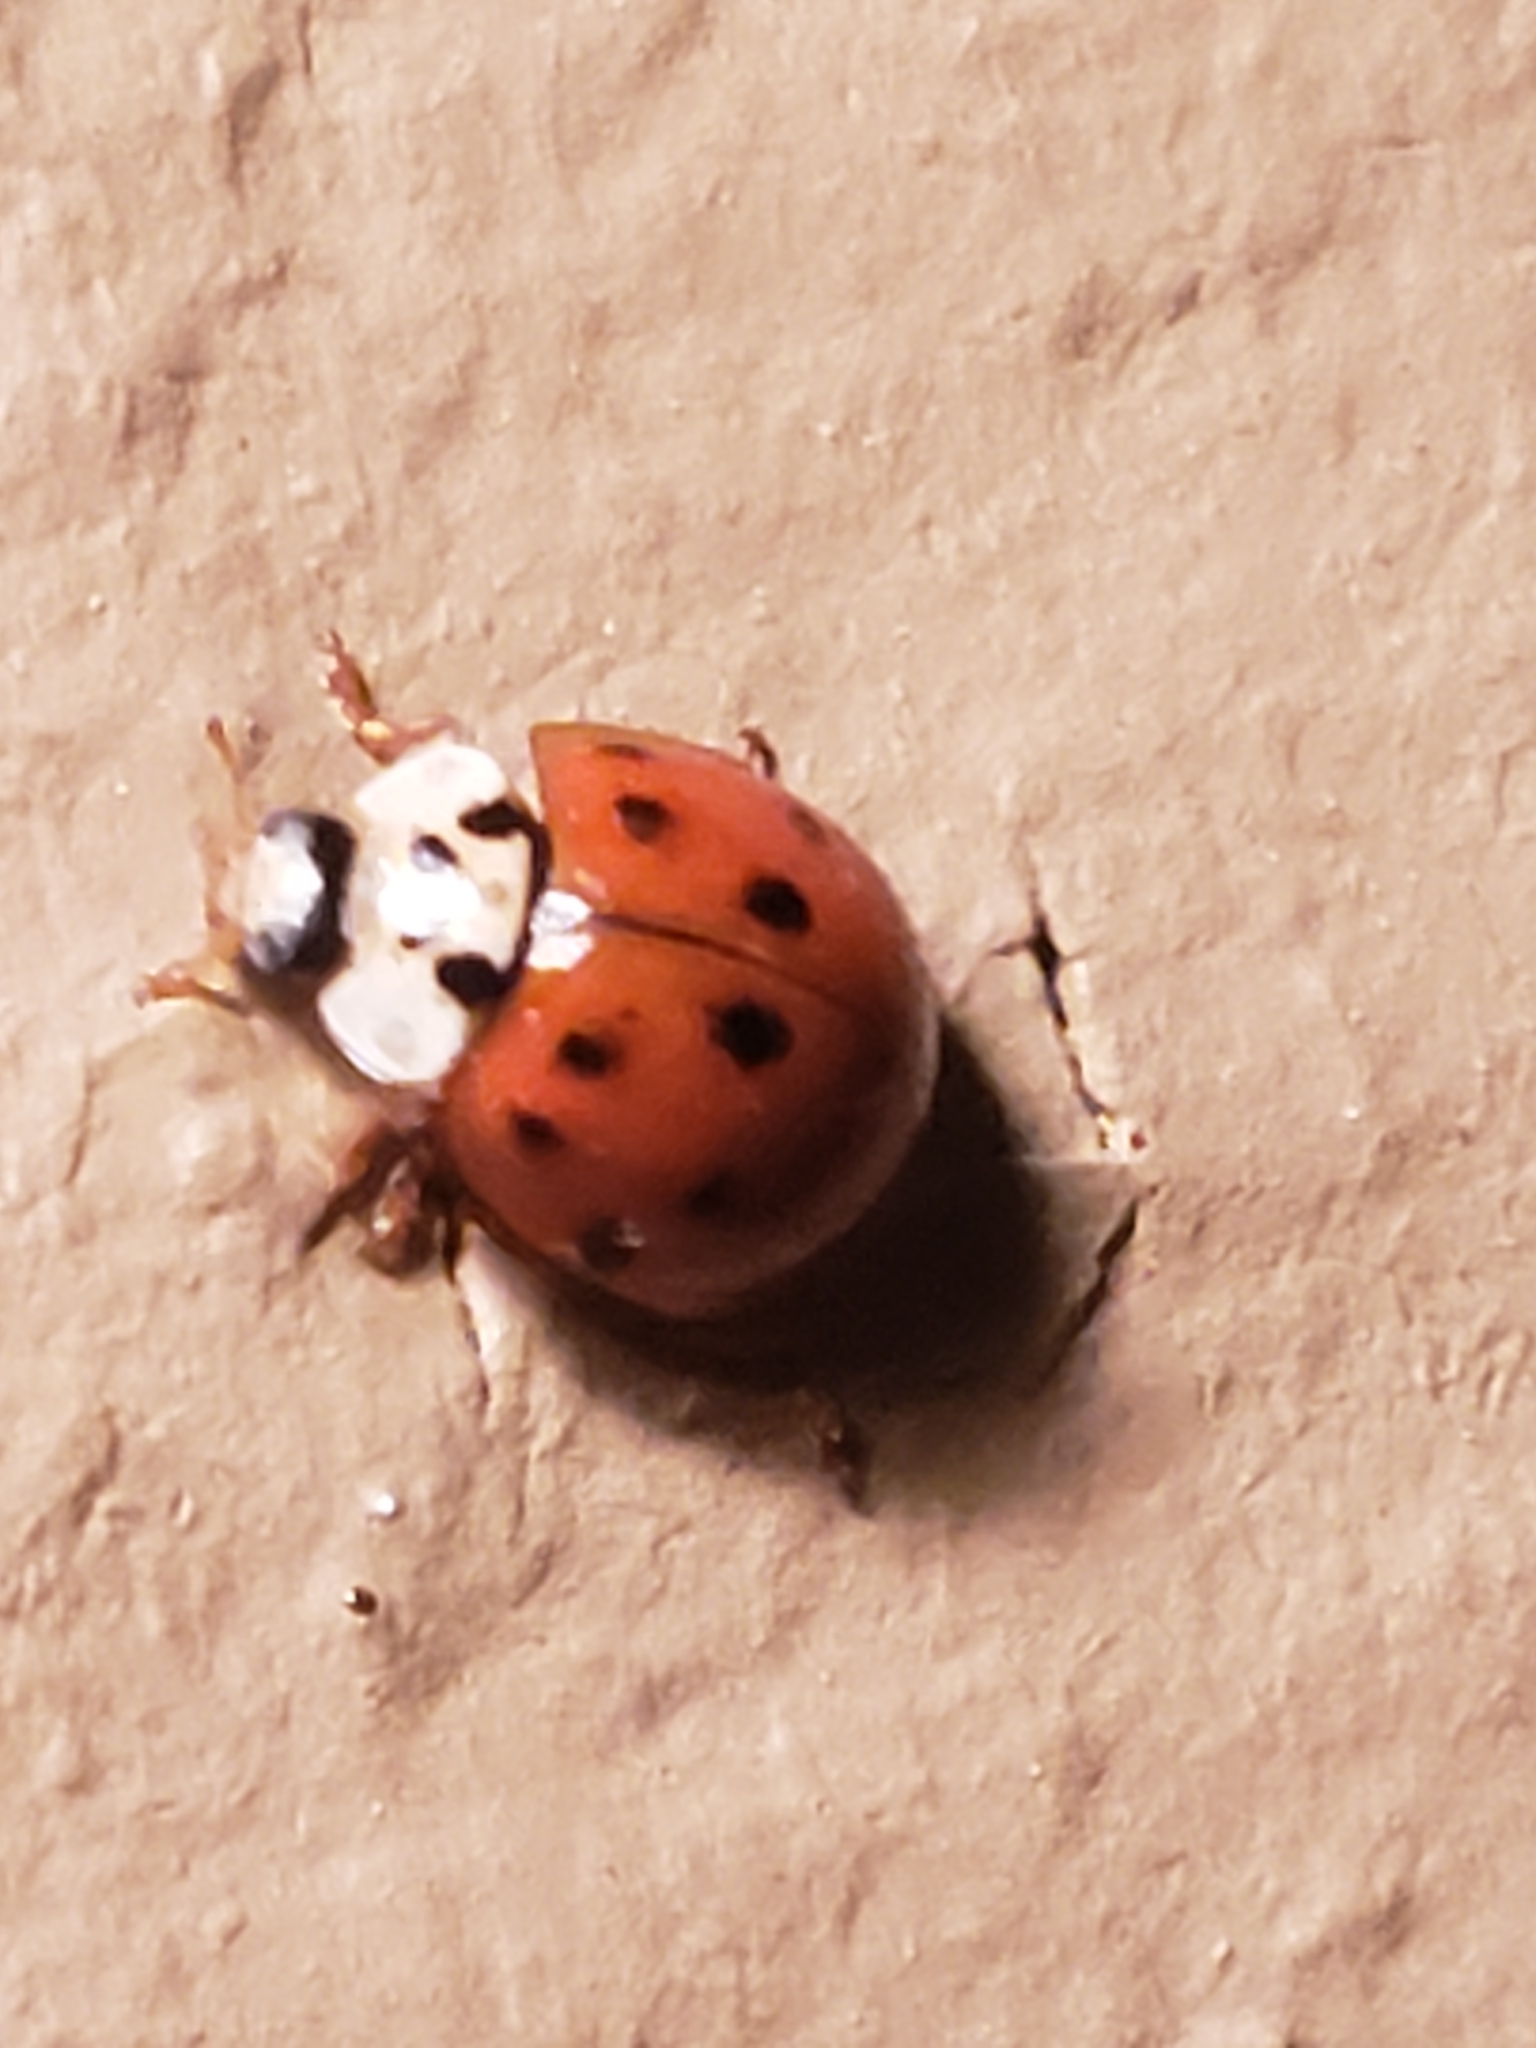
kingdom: Animalia
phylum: Arthropoda
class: Insecta
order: Coleoptera
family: Coccinellidae
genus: Harmonia
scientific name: Harmonia axyridis
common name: Harlequin ladybird
